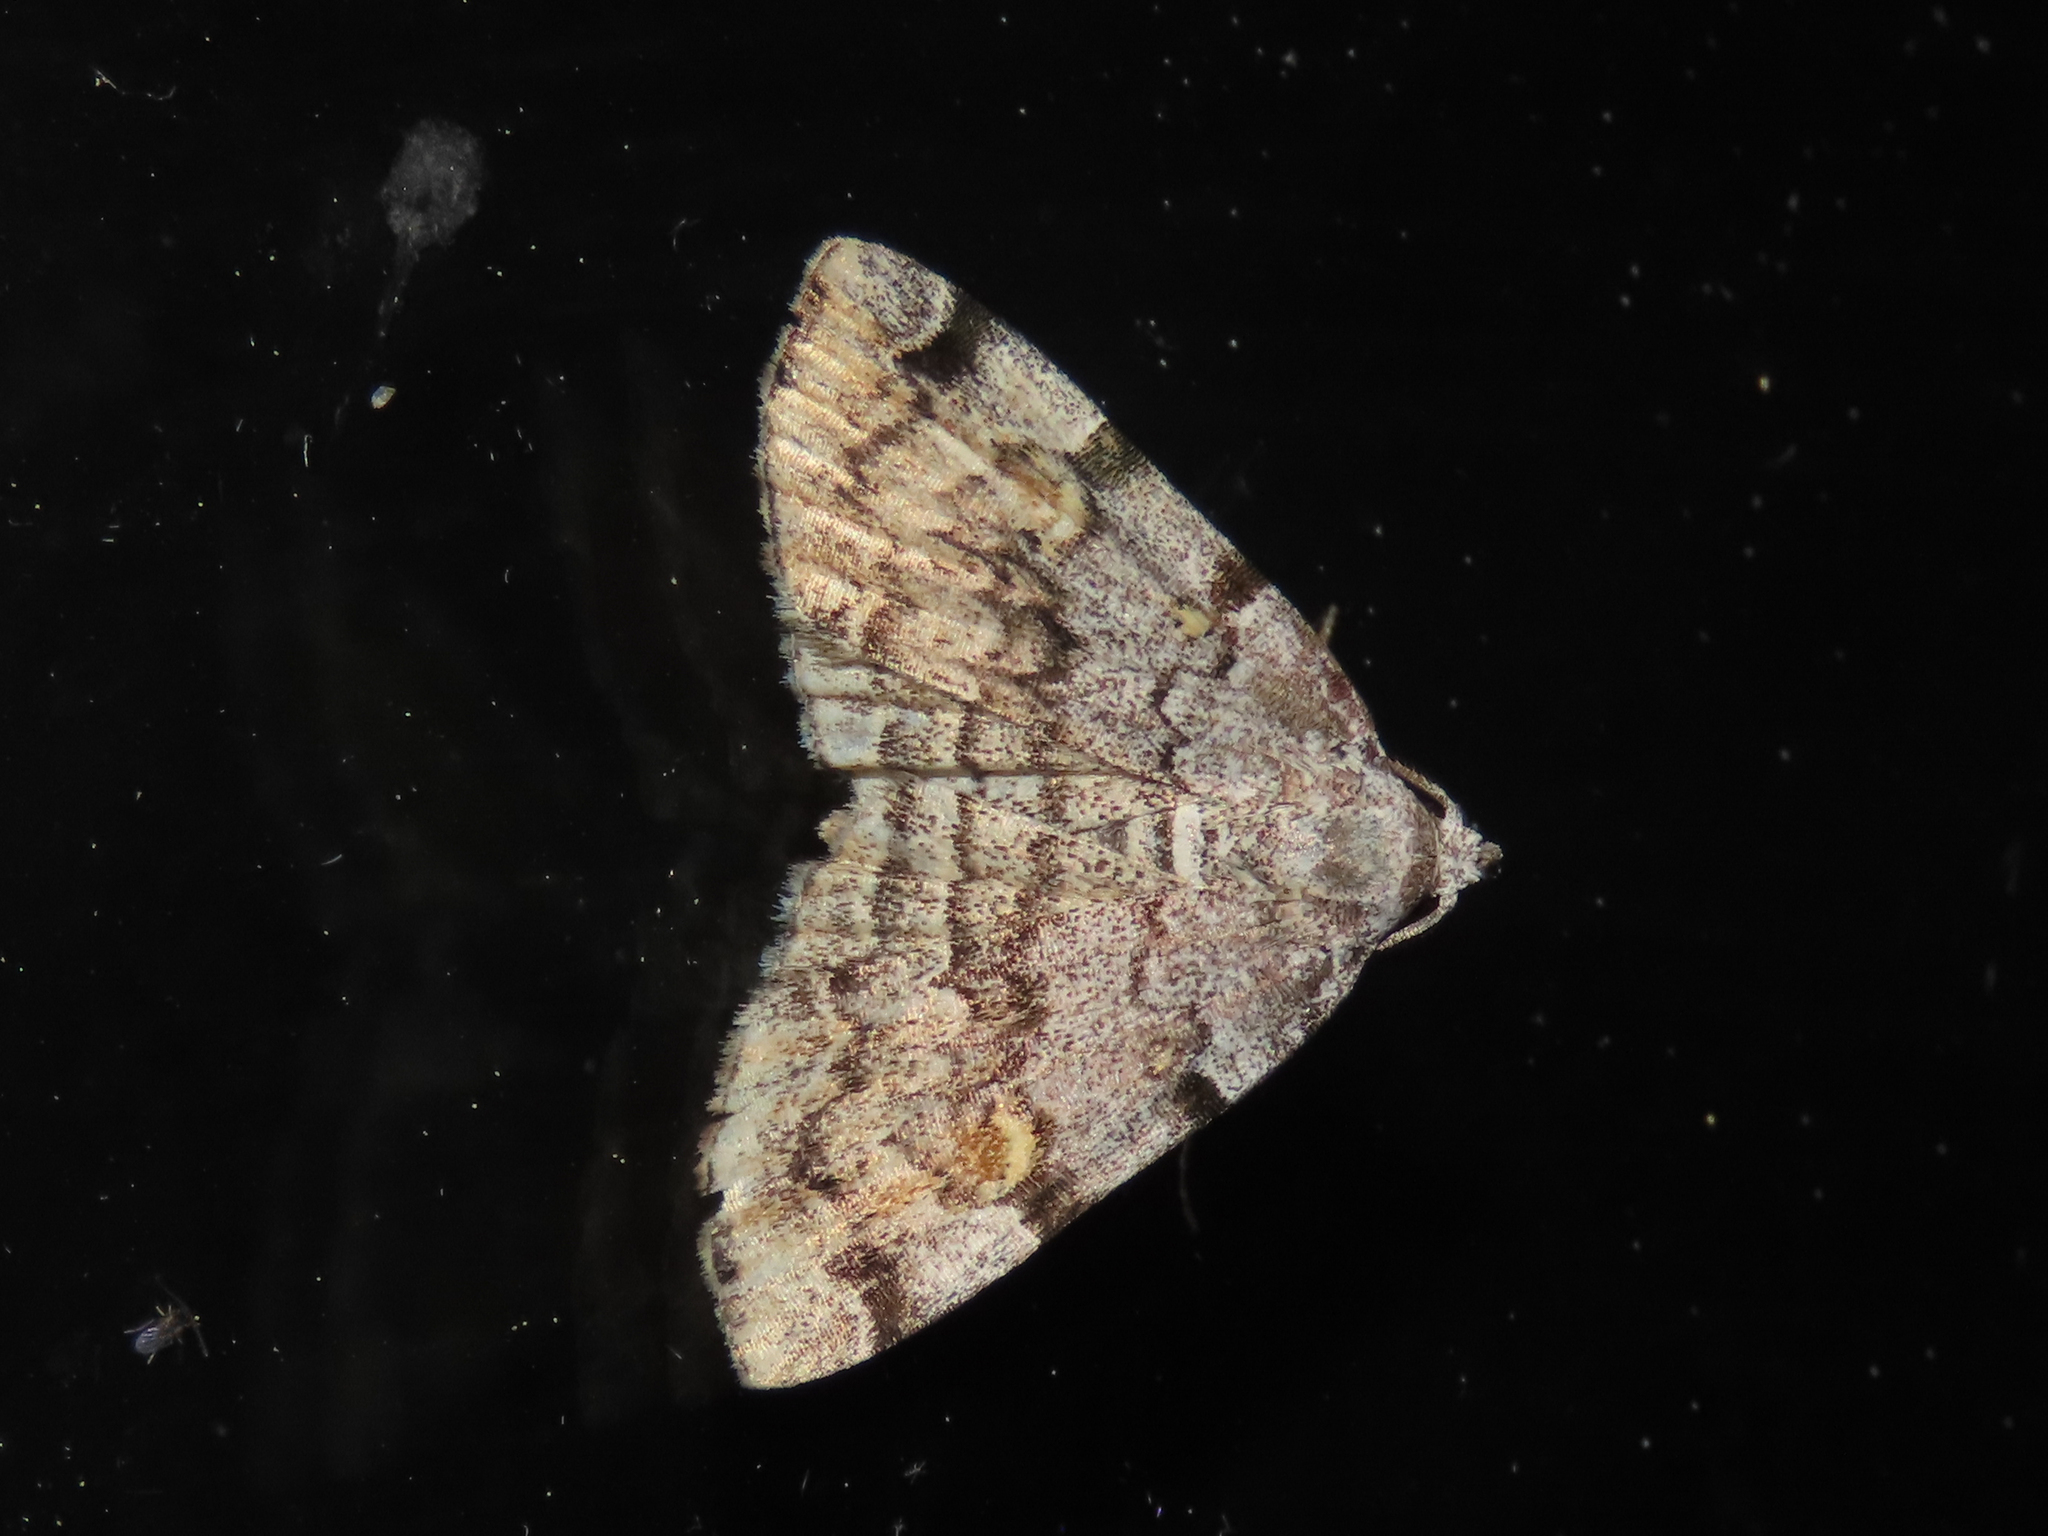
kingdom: Animalia
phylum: Arthropoda
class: Insecta
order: Lepidoptera
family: Erebidae
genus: Idia
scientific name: Idia americalis
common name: American idia moth
